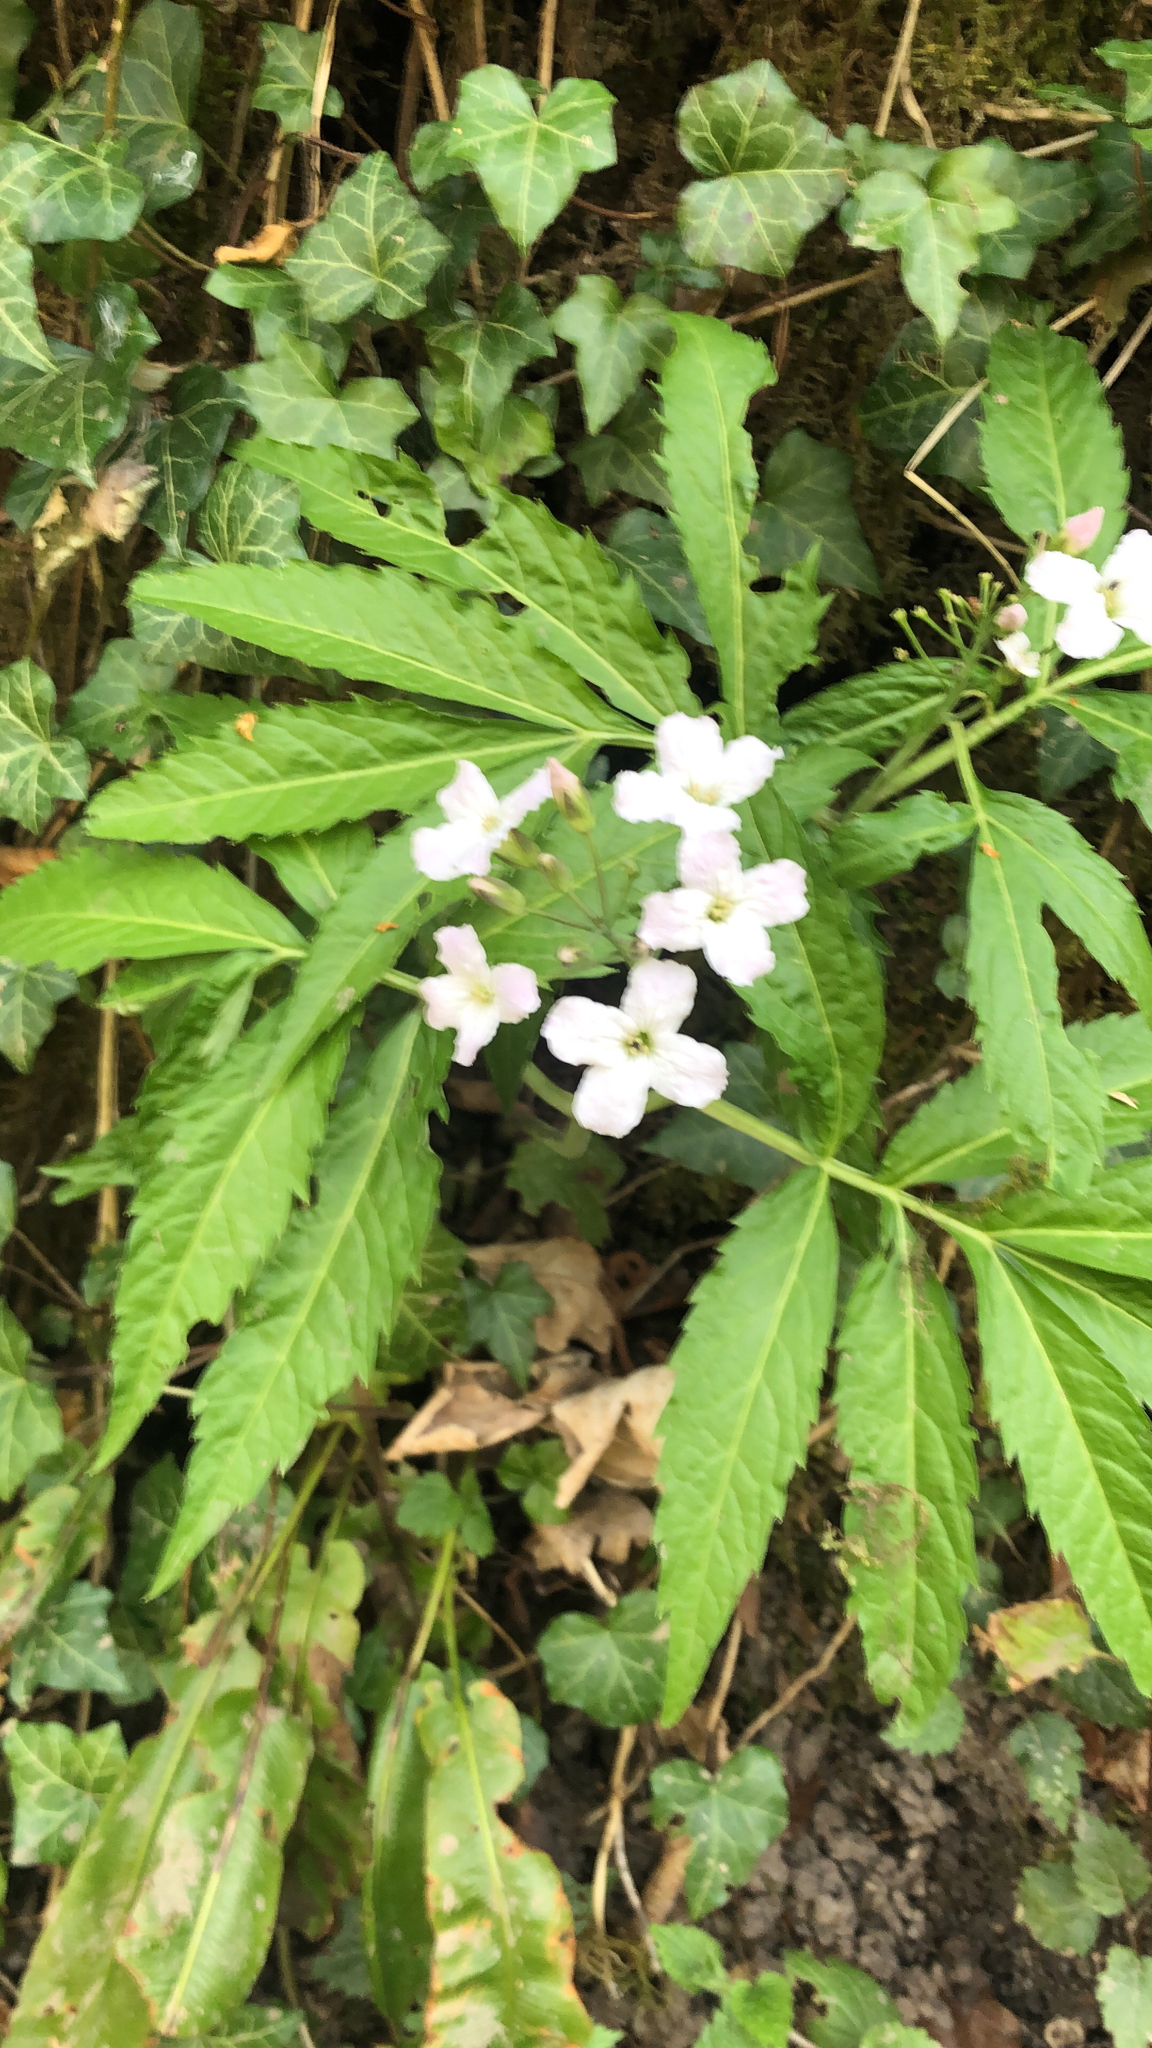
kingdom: Plantae
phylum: Tracheophyta
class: Magnoliopsida
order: Brassicales
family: Brassicaceae
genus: Cardamine
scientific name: Cardamine heptaphylla
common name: Pinnate coralroot
